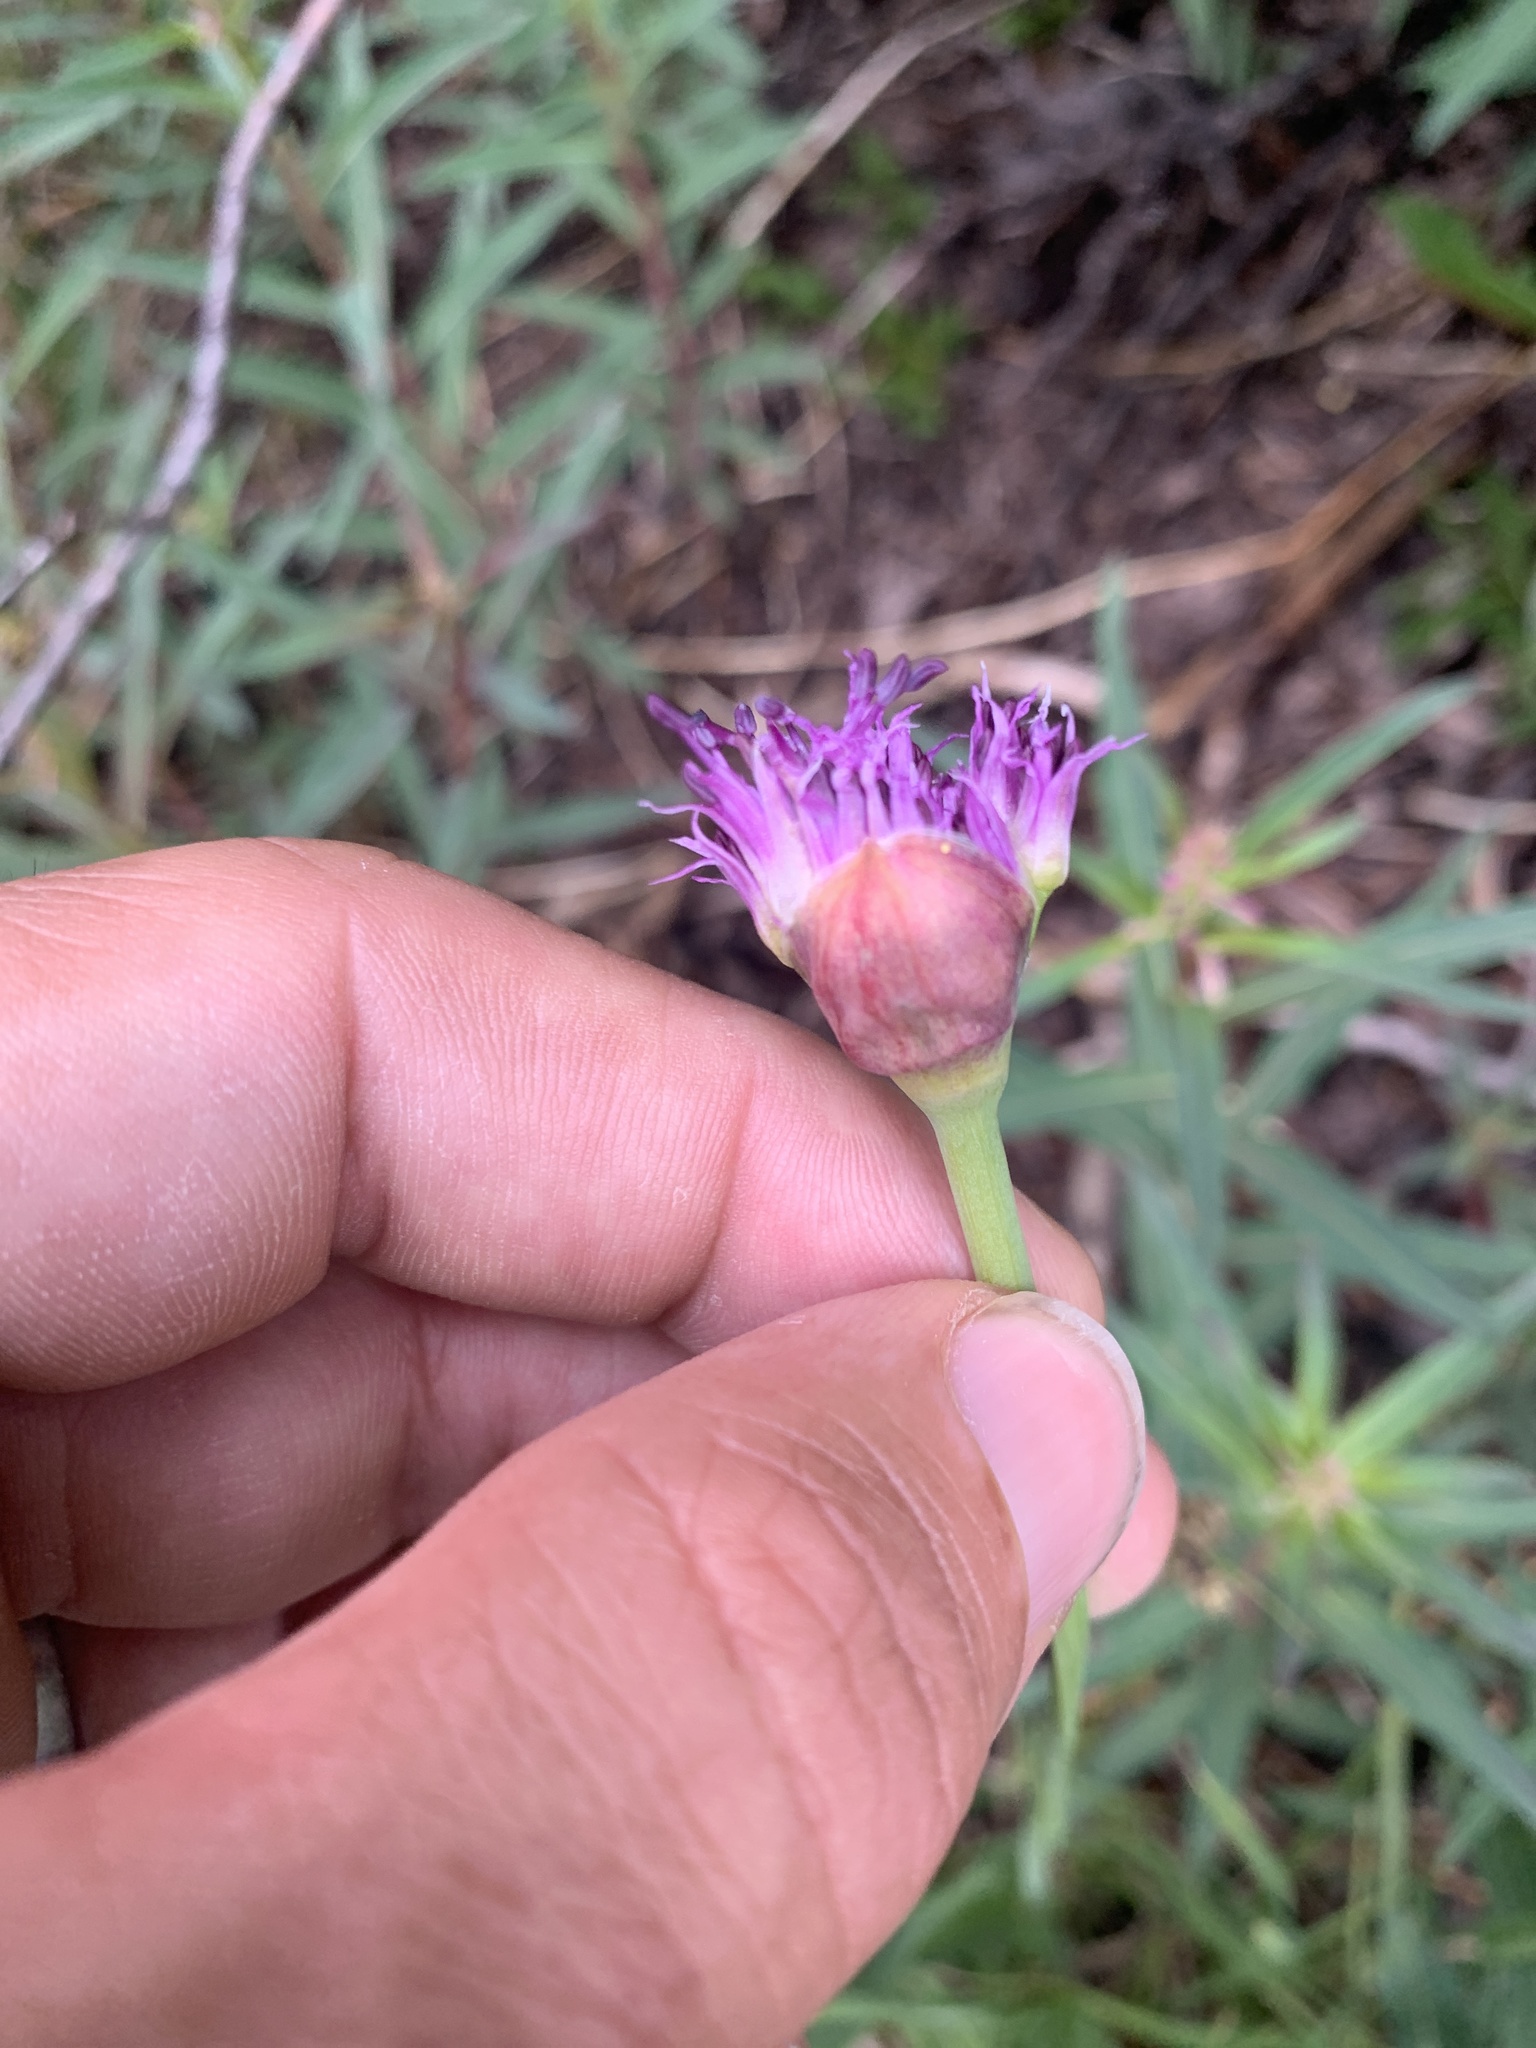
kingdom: Plantae
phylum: Tracheophyta
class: Liliopsida
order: Asparagales
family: Amaryllidaceae
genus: Allium
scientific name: Allium validum
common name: Pacific mountain onion
